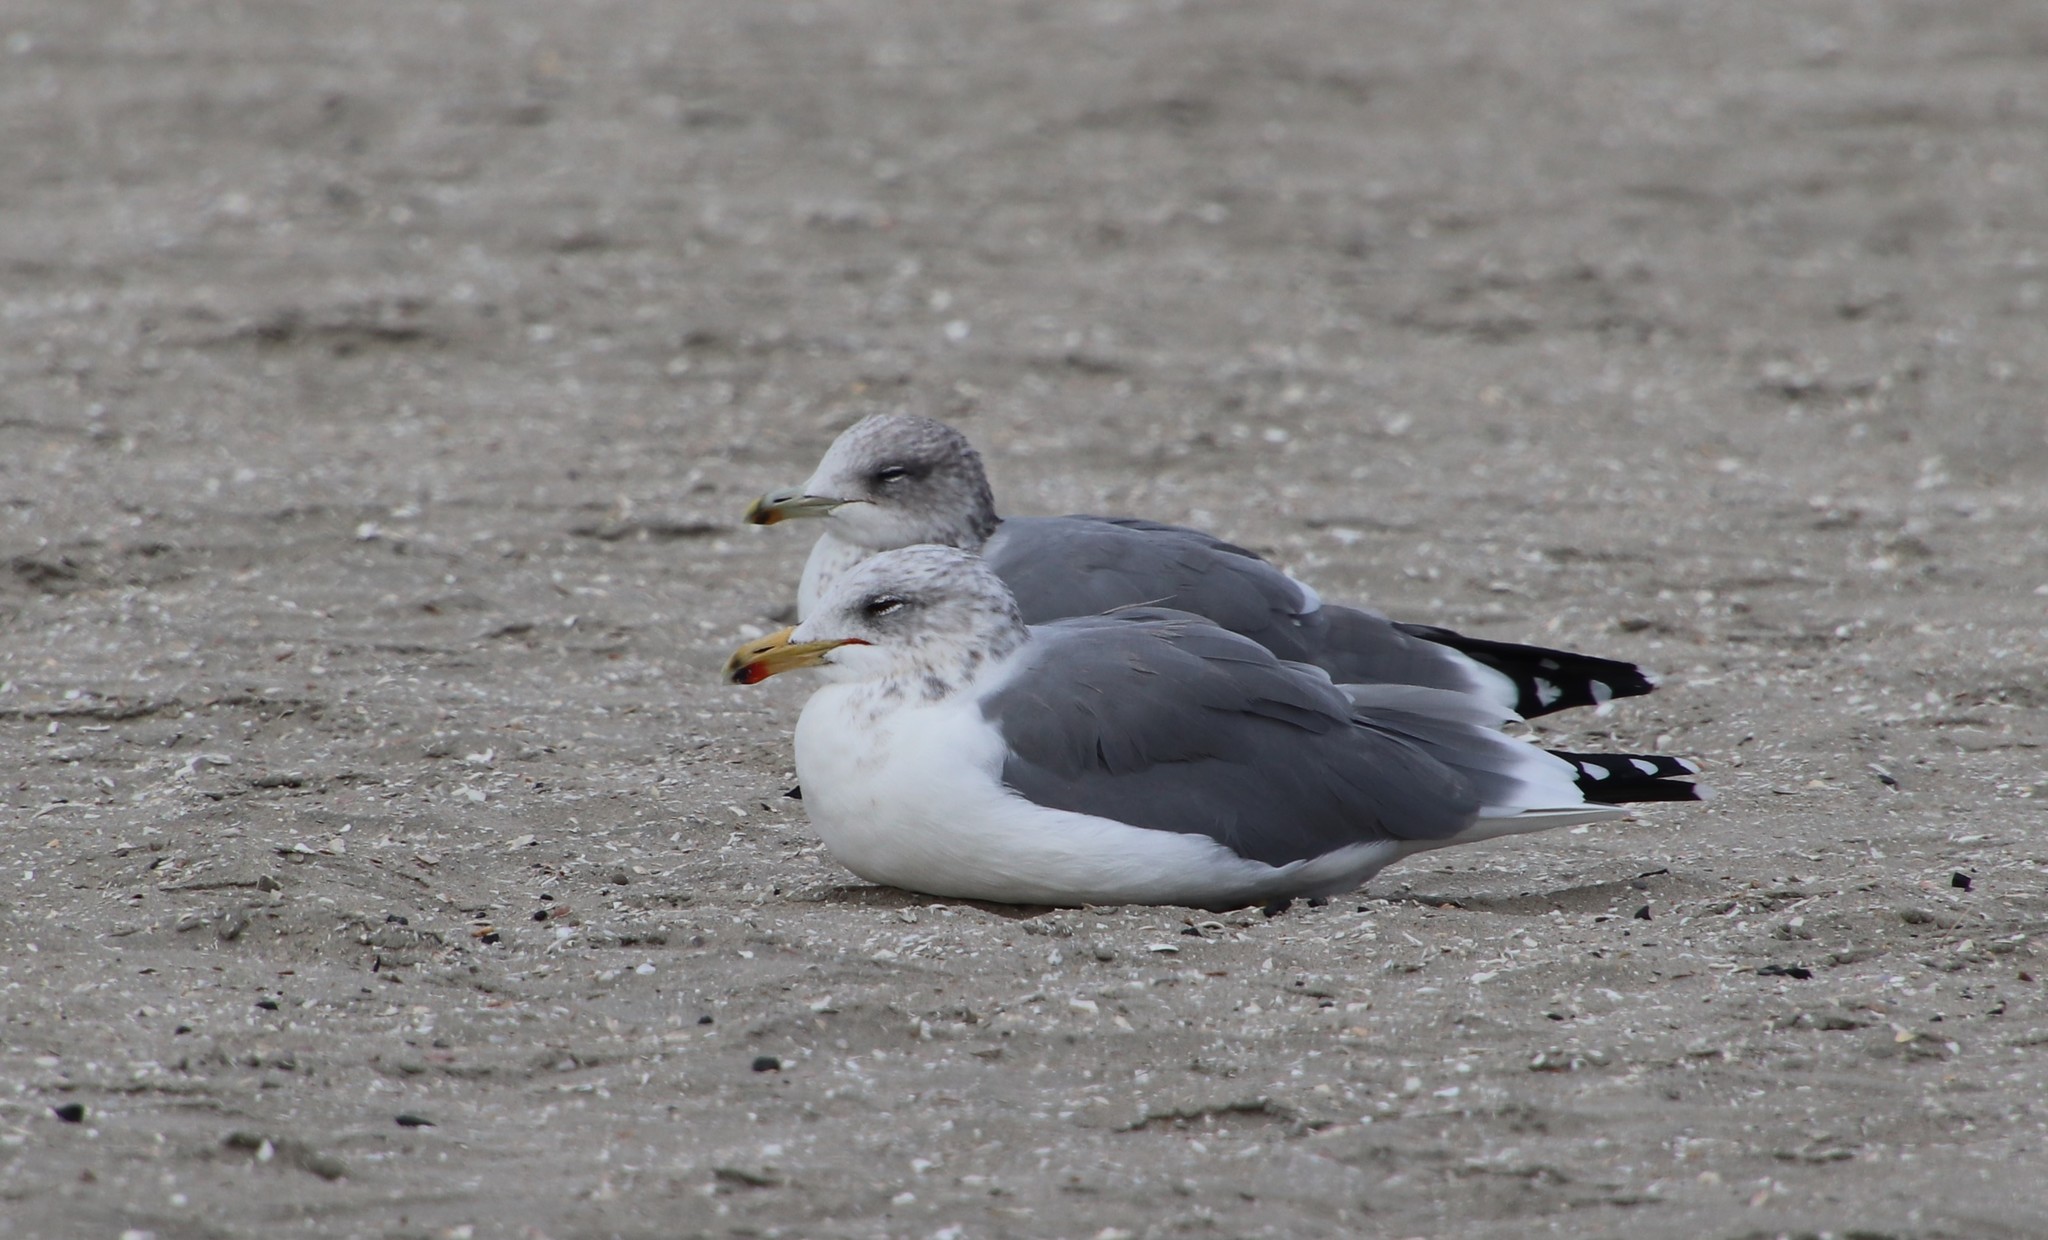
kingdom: Animalia
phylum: Chordata
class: Aves
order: Charadriiformes
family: Laridae
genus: Larus
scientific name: Larus californicus
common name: California gull
